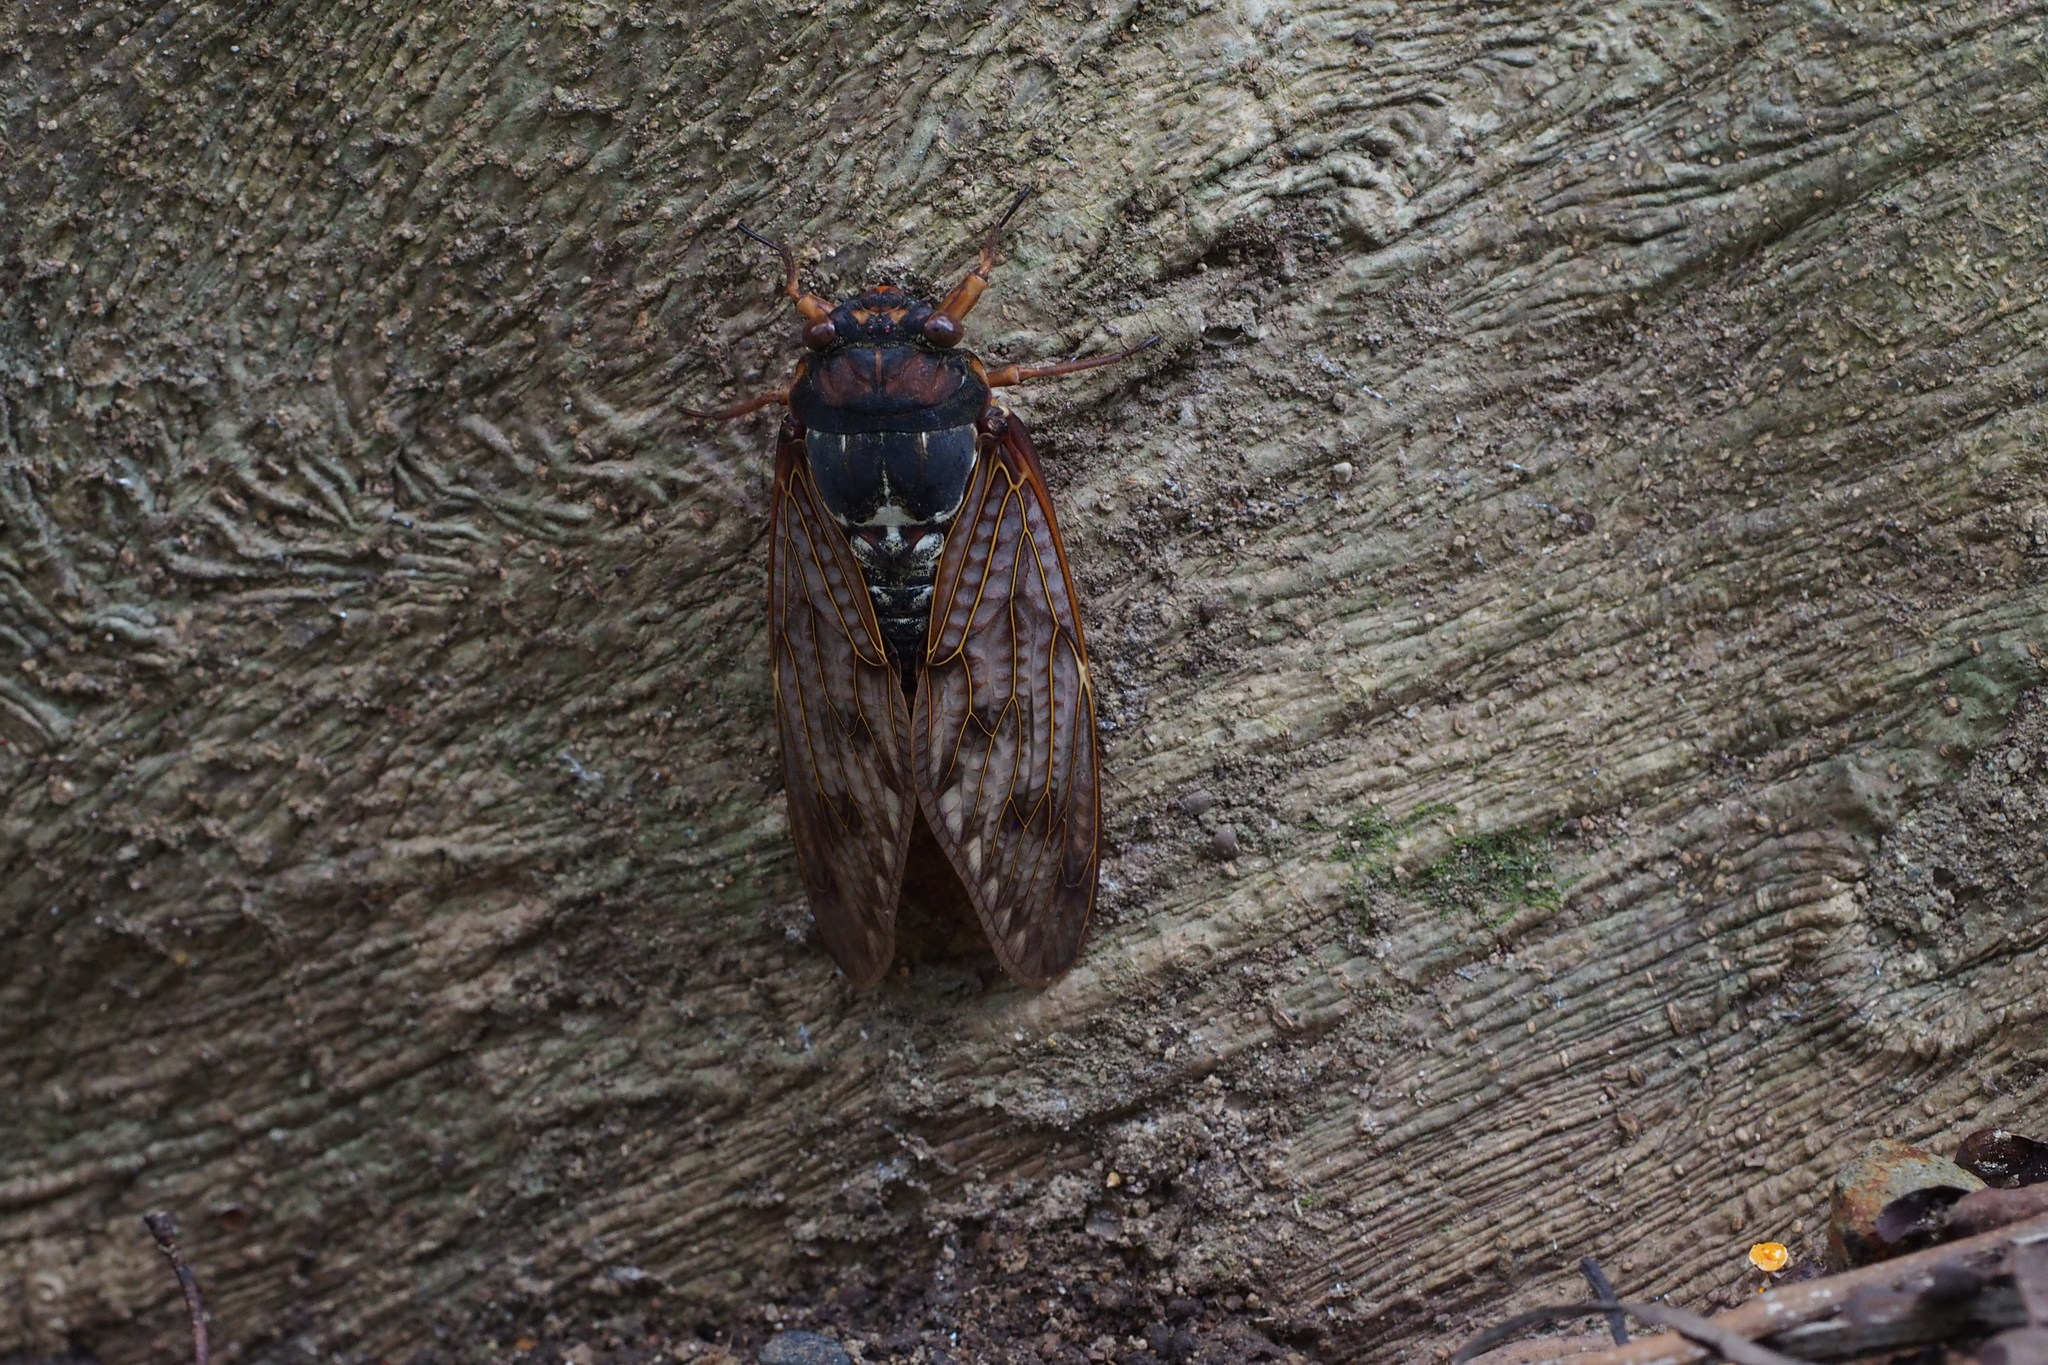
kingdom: Animalia
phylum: Arthropoda
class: Insecta
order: Hemiptera
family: Cicadidae
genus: Graptopsaltria
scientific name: Graptopsaltria nigrofuscata
